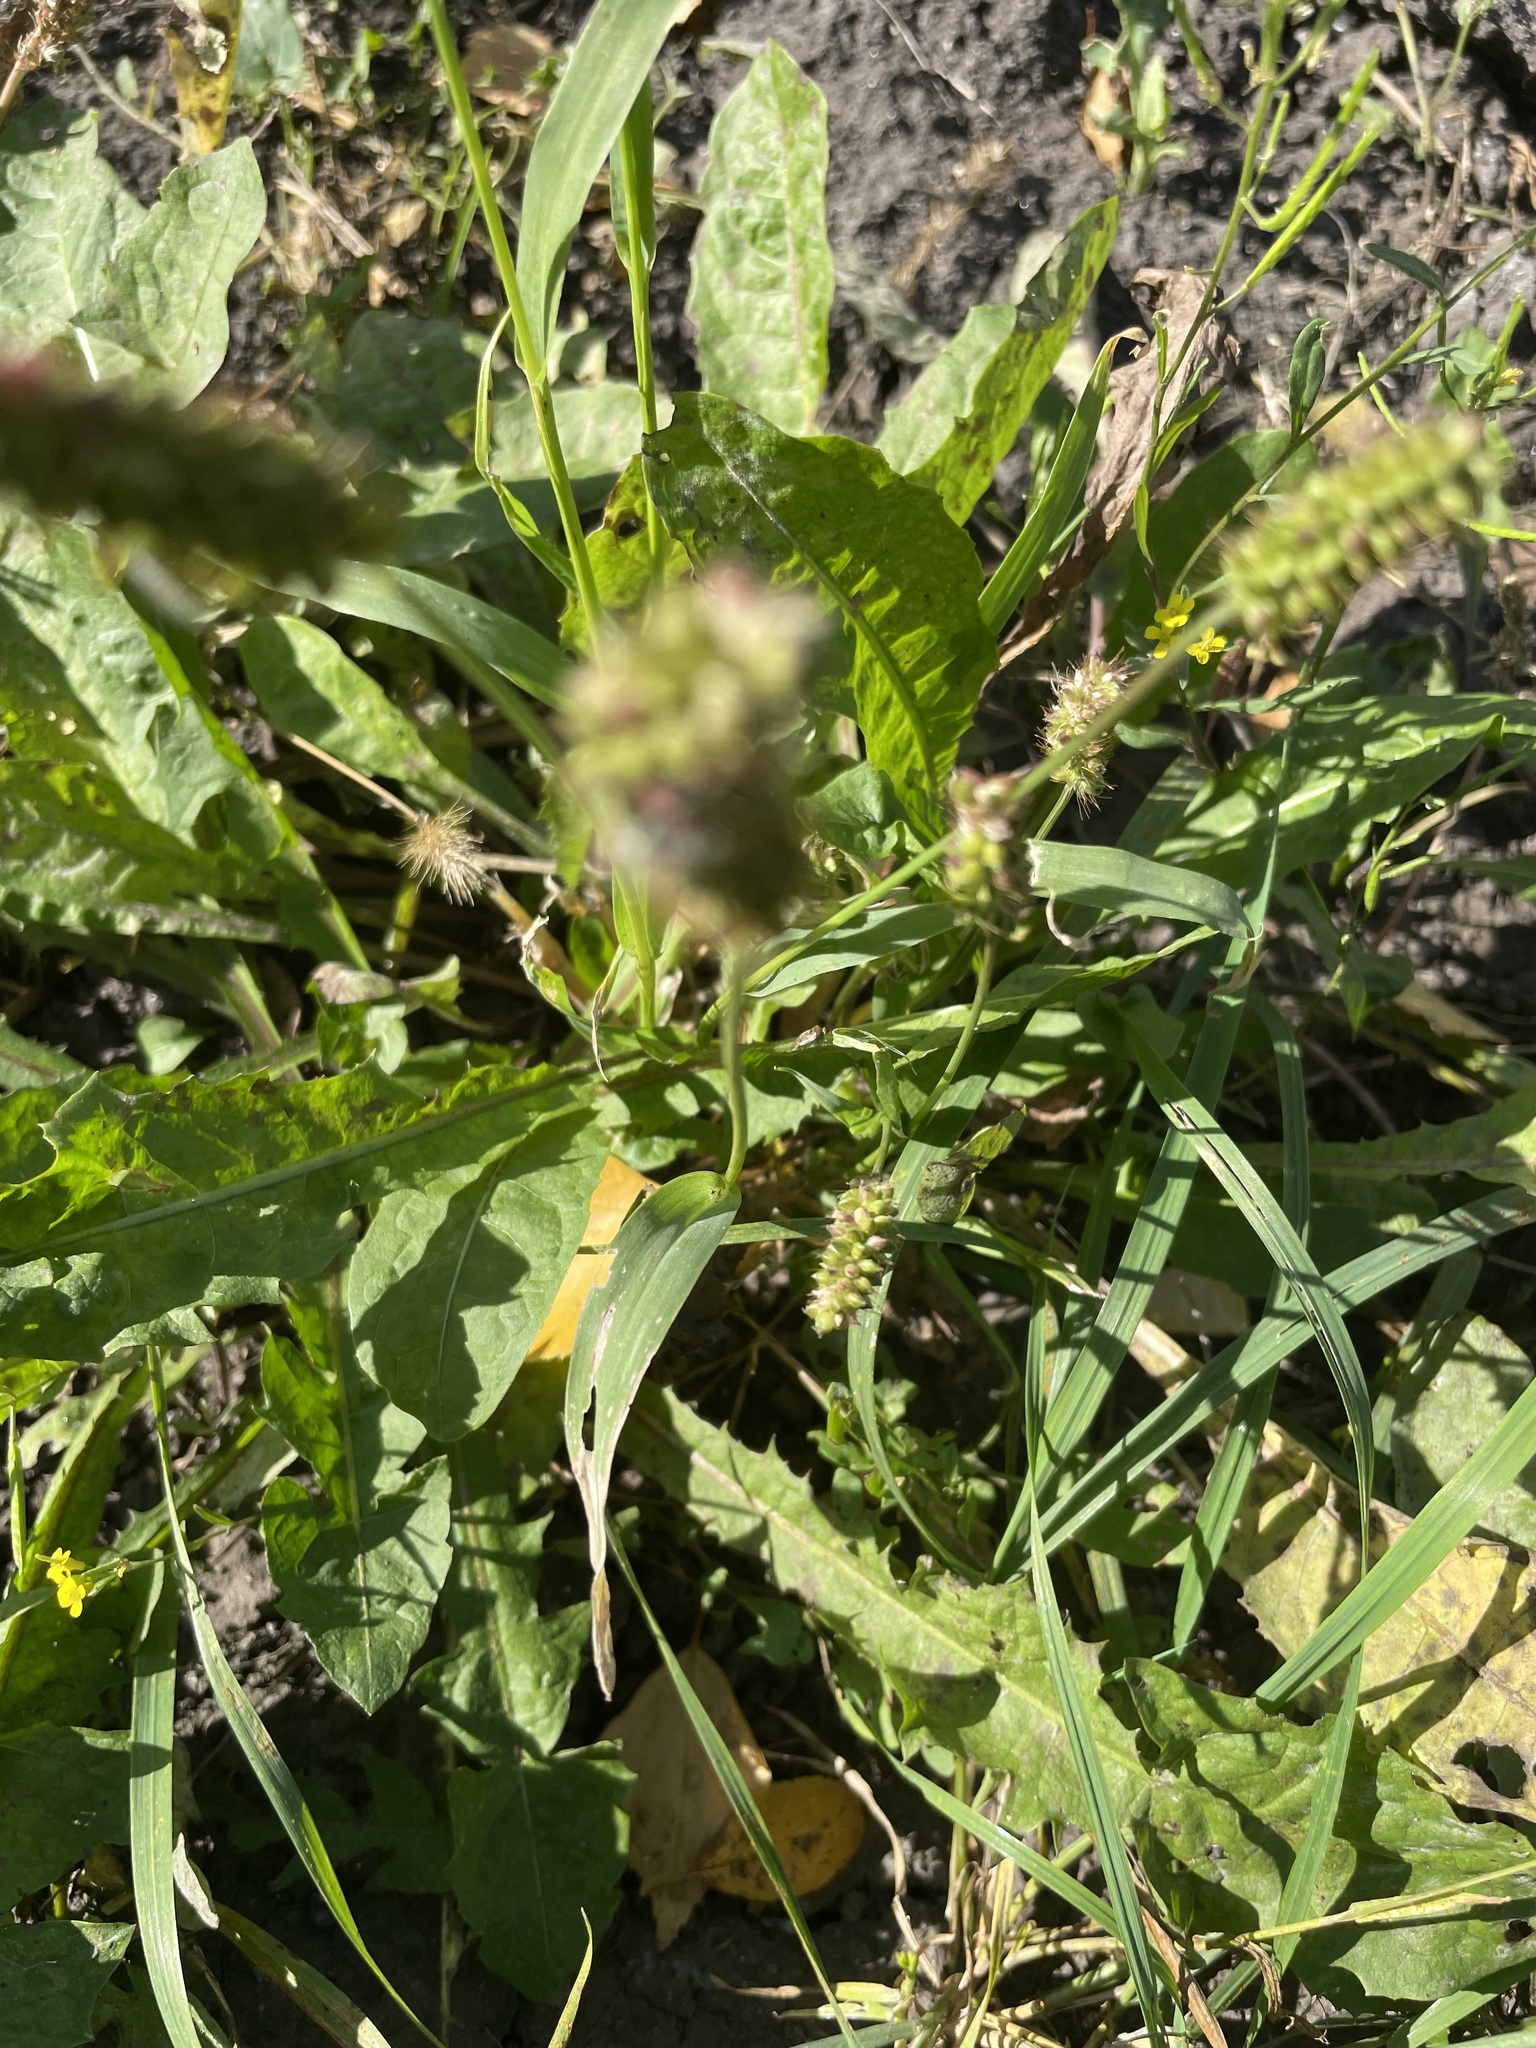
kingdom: Plantae
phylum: Tracheophyta
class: Liliopsida
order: Poales
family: Poaceae
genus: Setaria
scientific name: Setaria pumila
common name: Yellow bristle-grass
